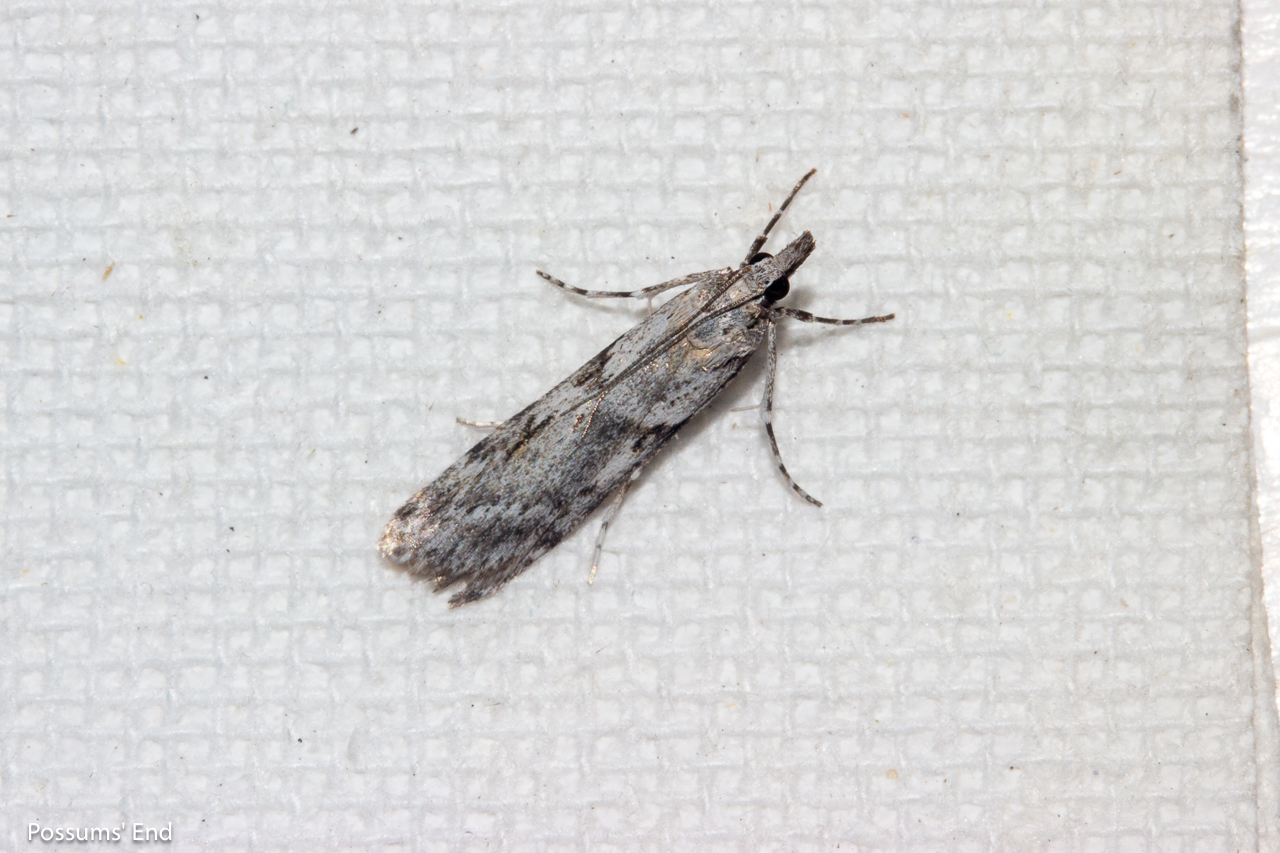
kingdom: Animalia
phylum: Arthropoda
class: Insecta
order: Lepidoptera
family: Crambidae
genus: Scoparia
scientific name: Scoparia halopis
